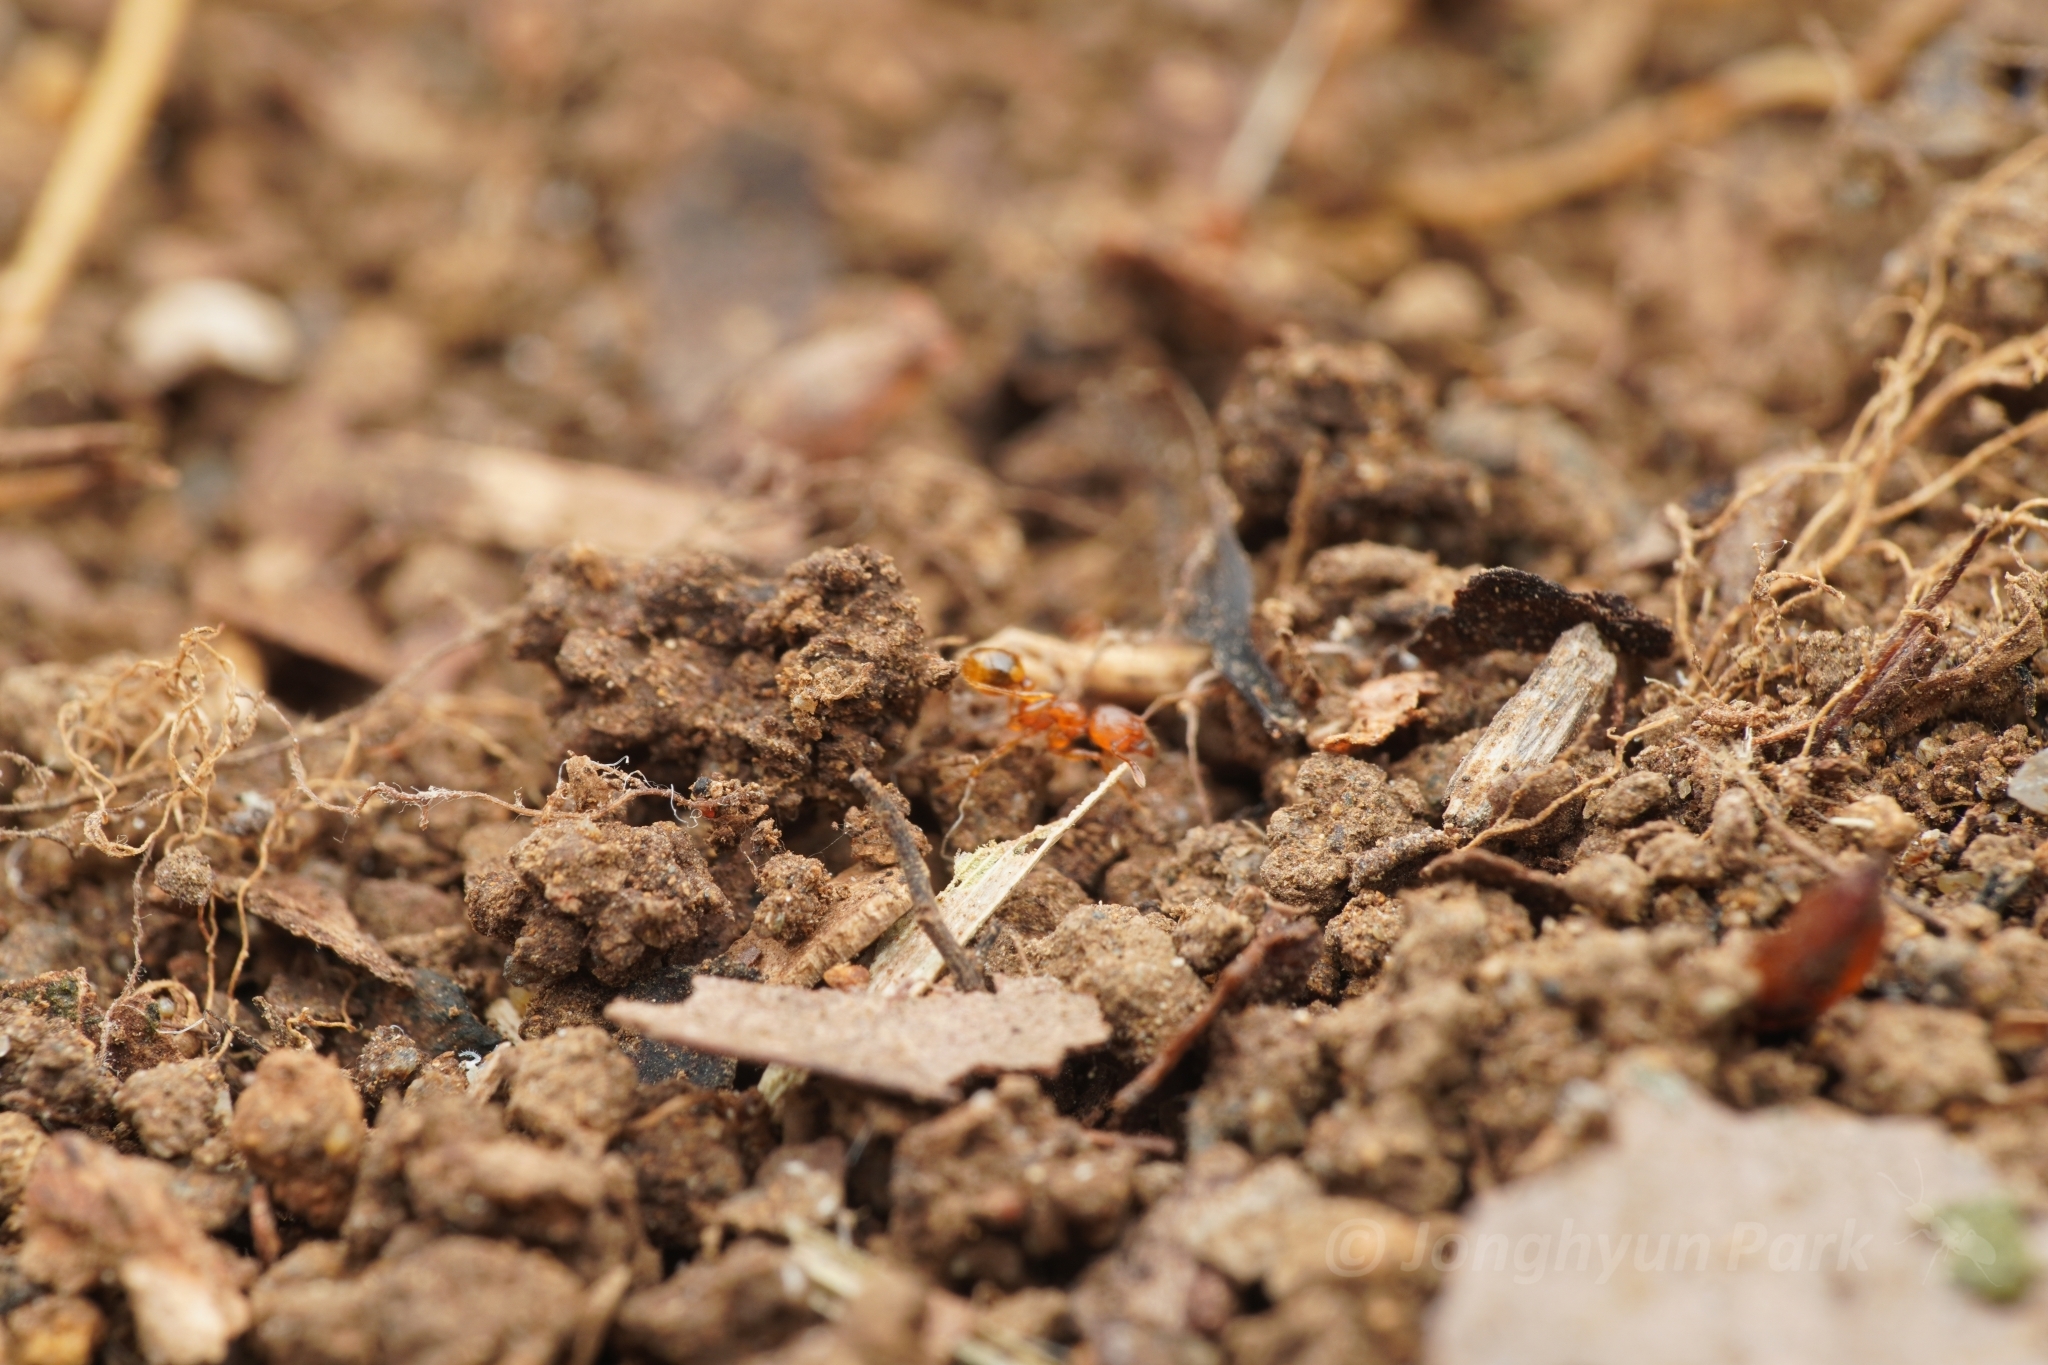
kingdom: Animalia
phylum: Arthropoda
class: Insecta
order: Hymenoptera
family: Formicidae
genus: Pheidole
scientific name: Pheidole fervida
